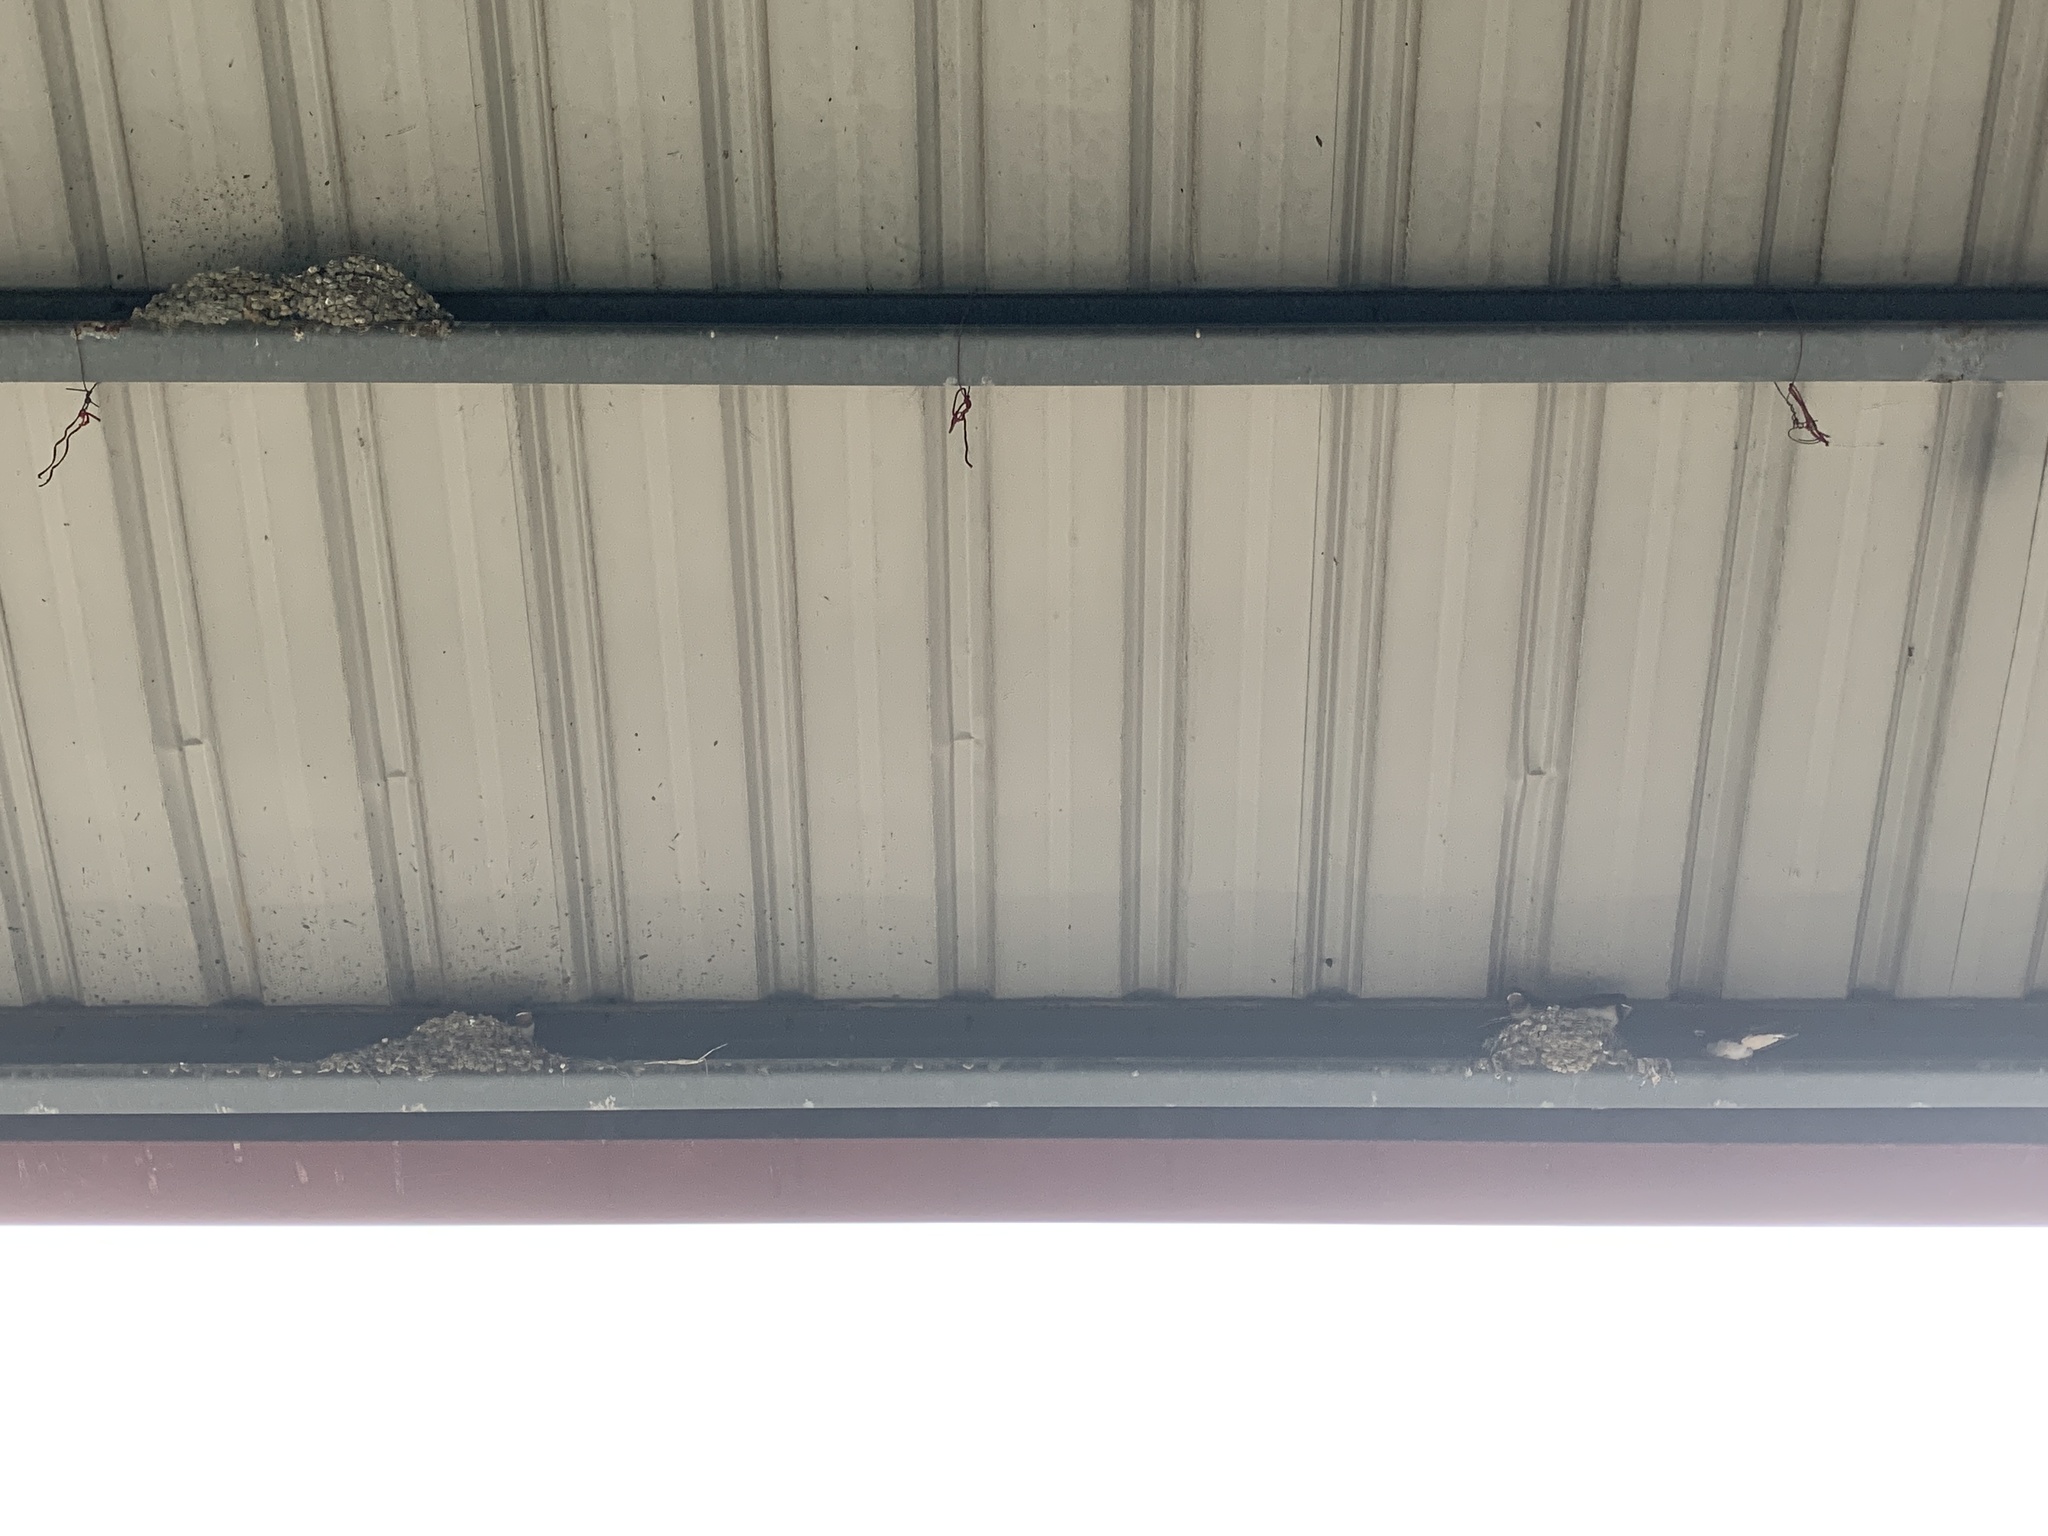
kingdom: Animalia
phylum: Chordata
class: Aves
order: Passeriformes
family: Hirundinidae
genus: Hirundo
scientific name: Hirundo rustica
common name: Barn swallow
